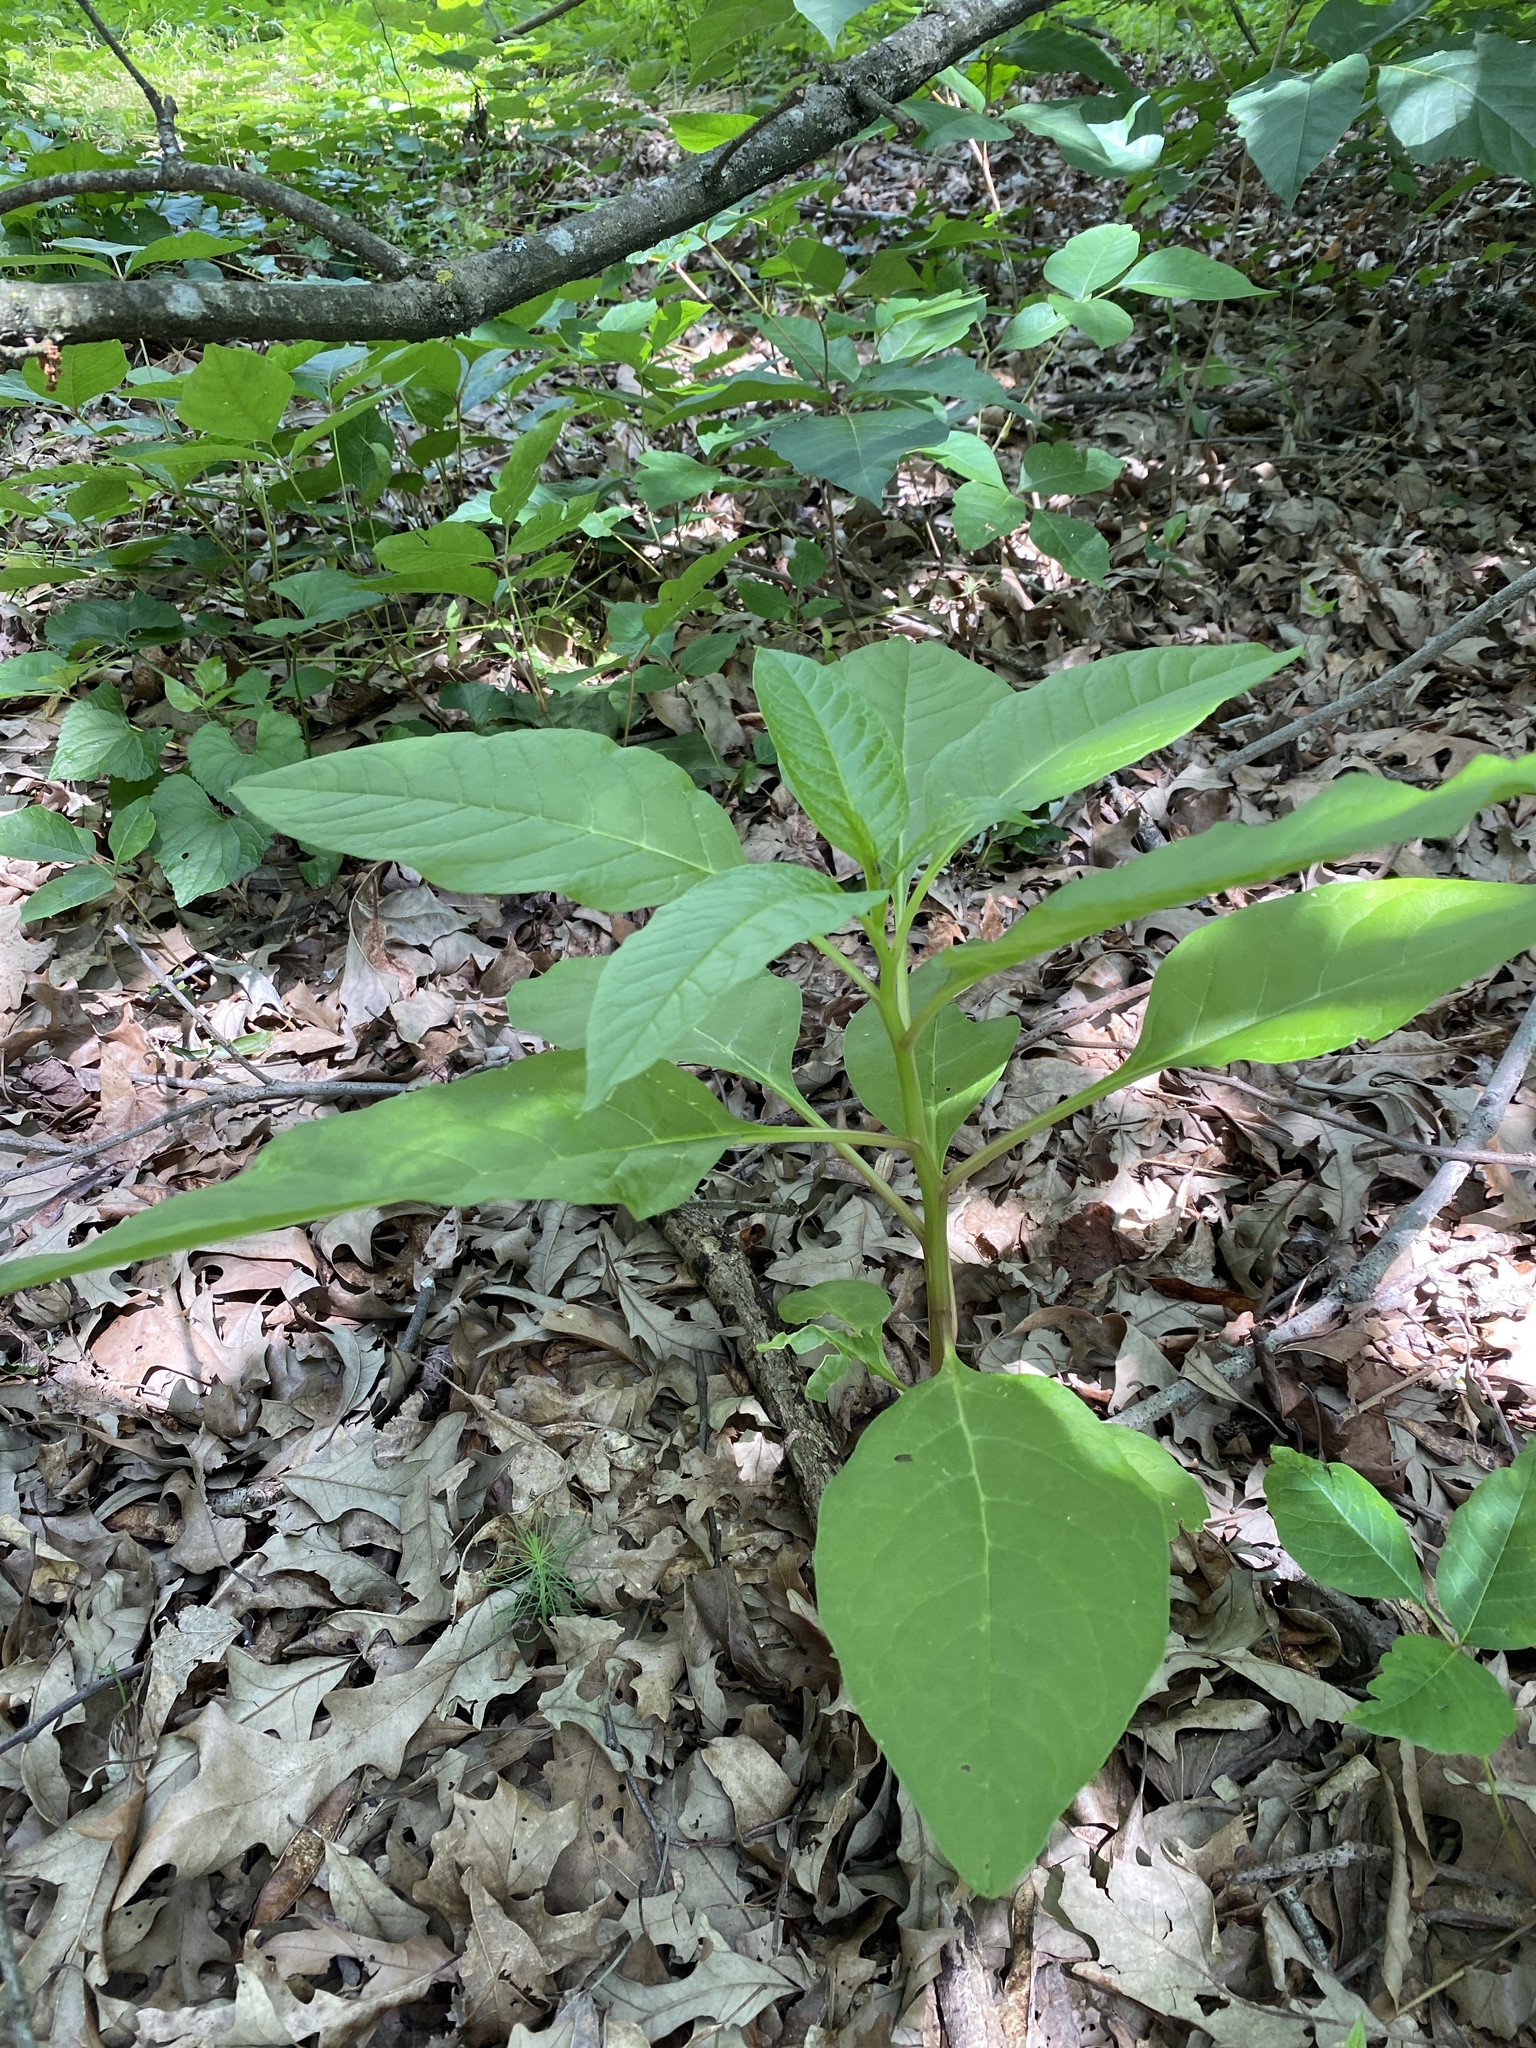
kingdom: Plantae
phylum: Tracheophyta
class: Magnoliopsida
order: Caryophyllales
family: Phytolaccaceae
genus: Phytolacca
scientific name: Phytolacca americana
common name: American pokeweed
